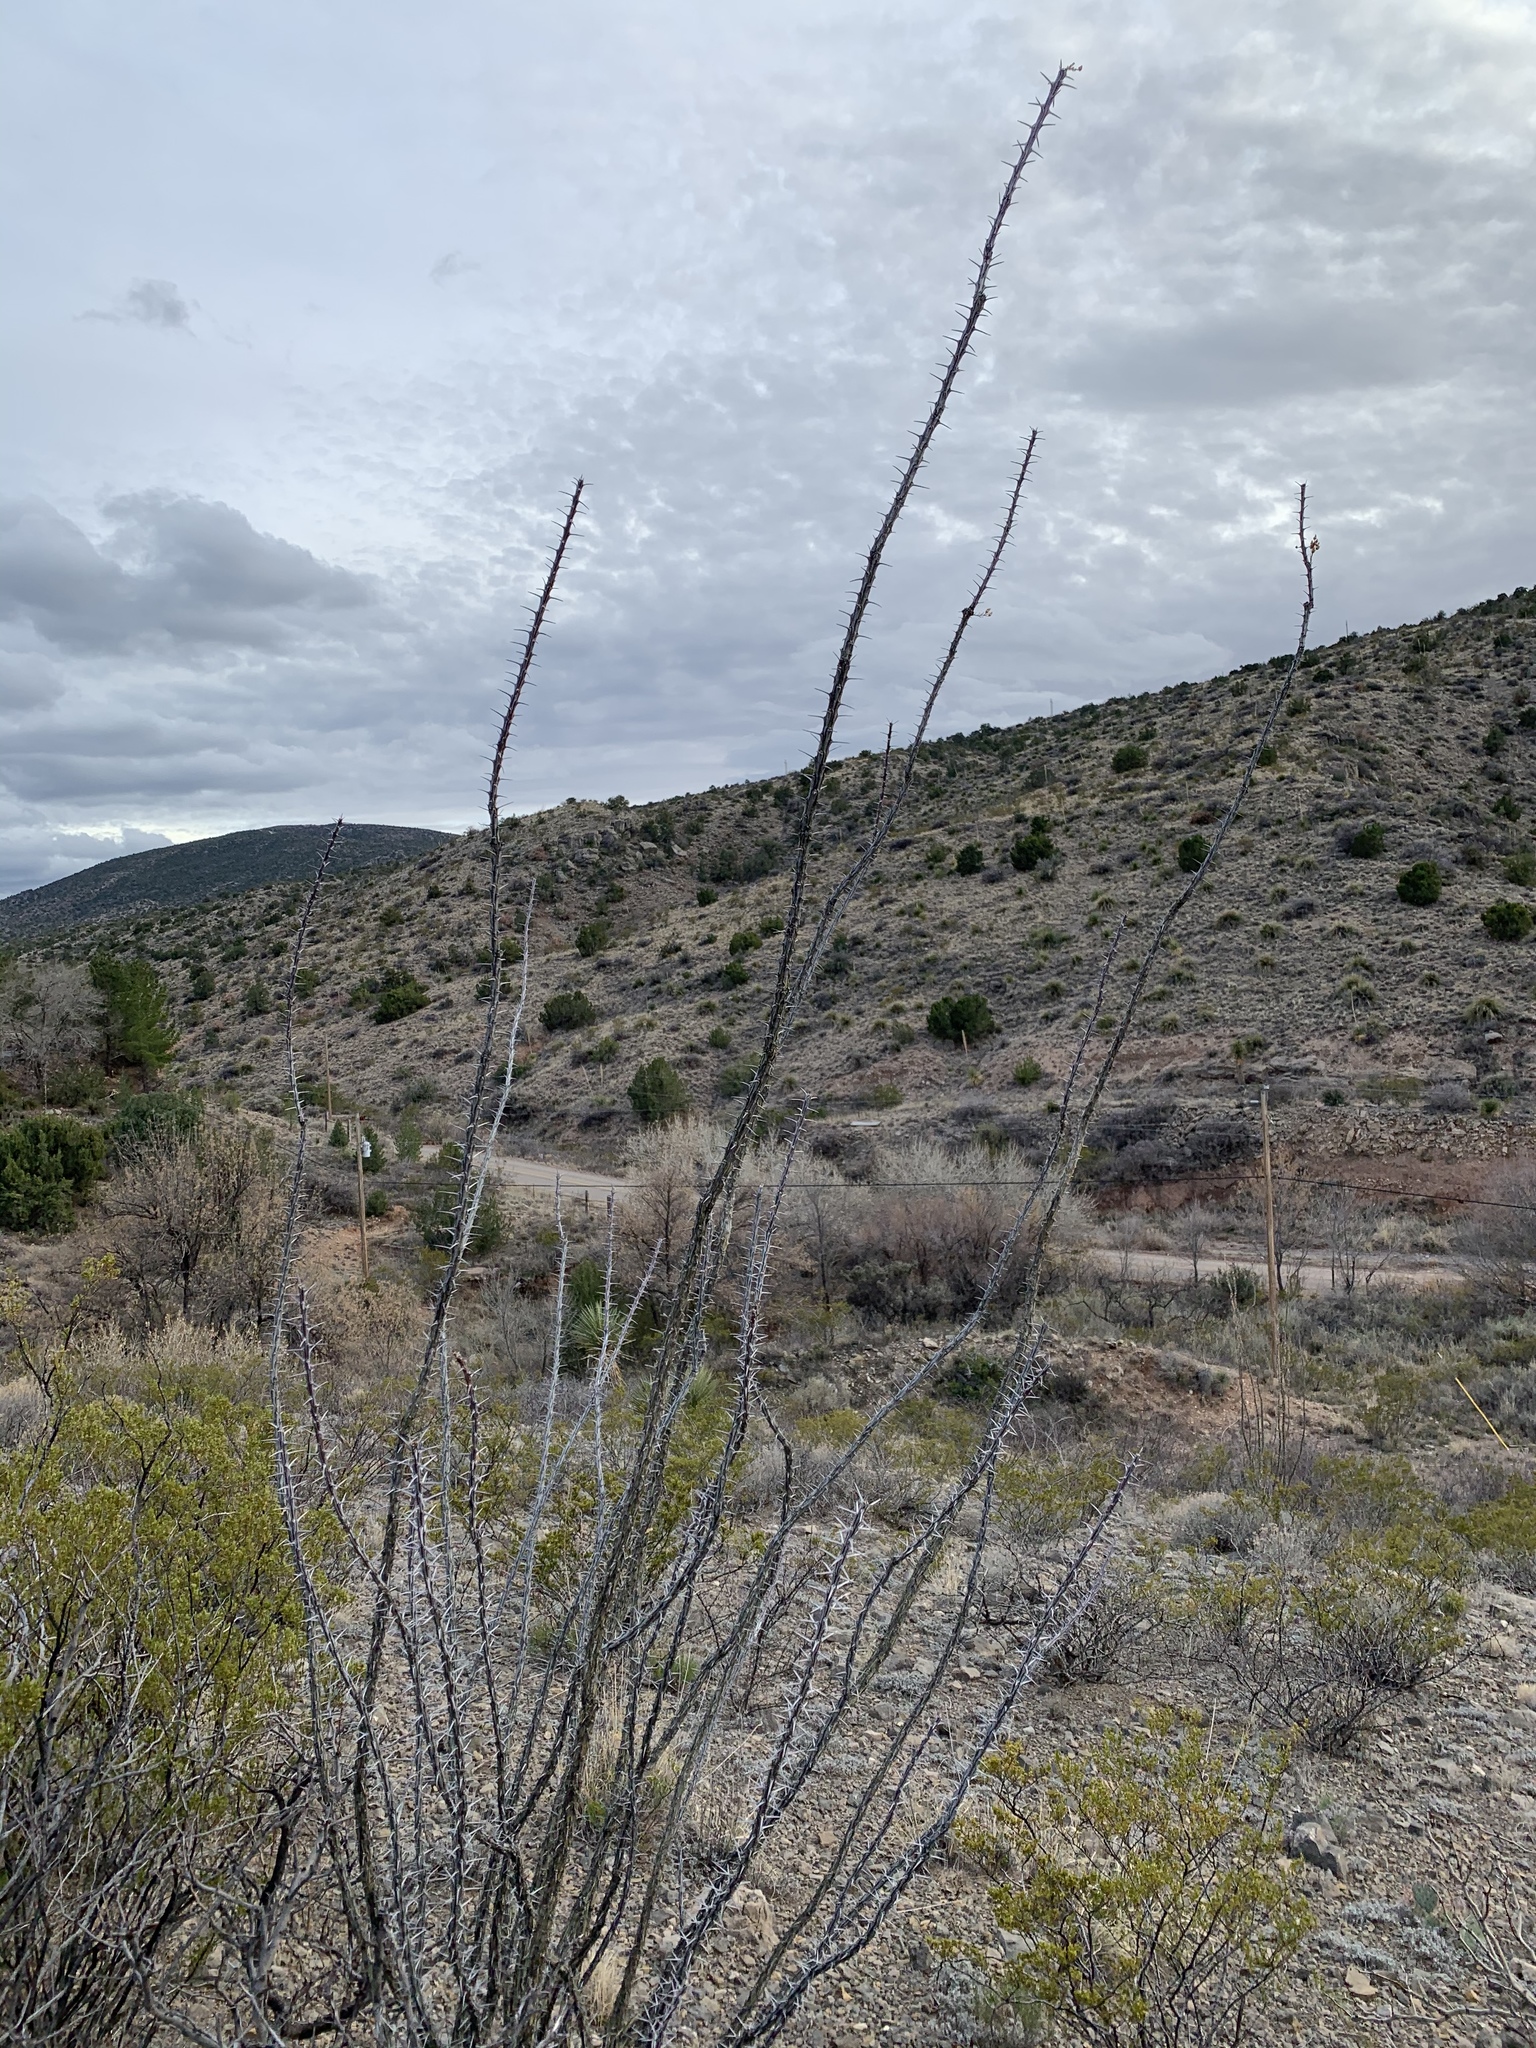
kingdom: Plantae
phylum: Tracheophyta
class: Magnoliopsida
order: Ericales
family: Fouquieriaceae
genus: Fouquieria
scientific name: Fouquieria splendens
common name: Vine-cactus
